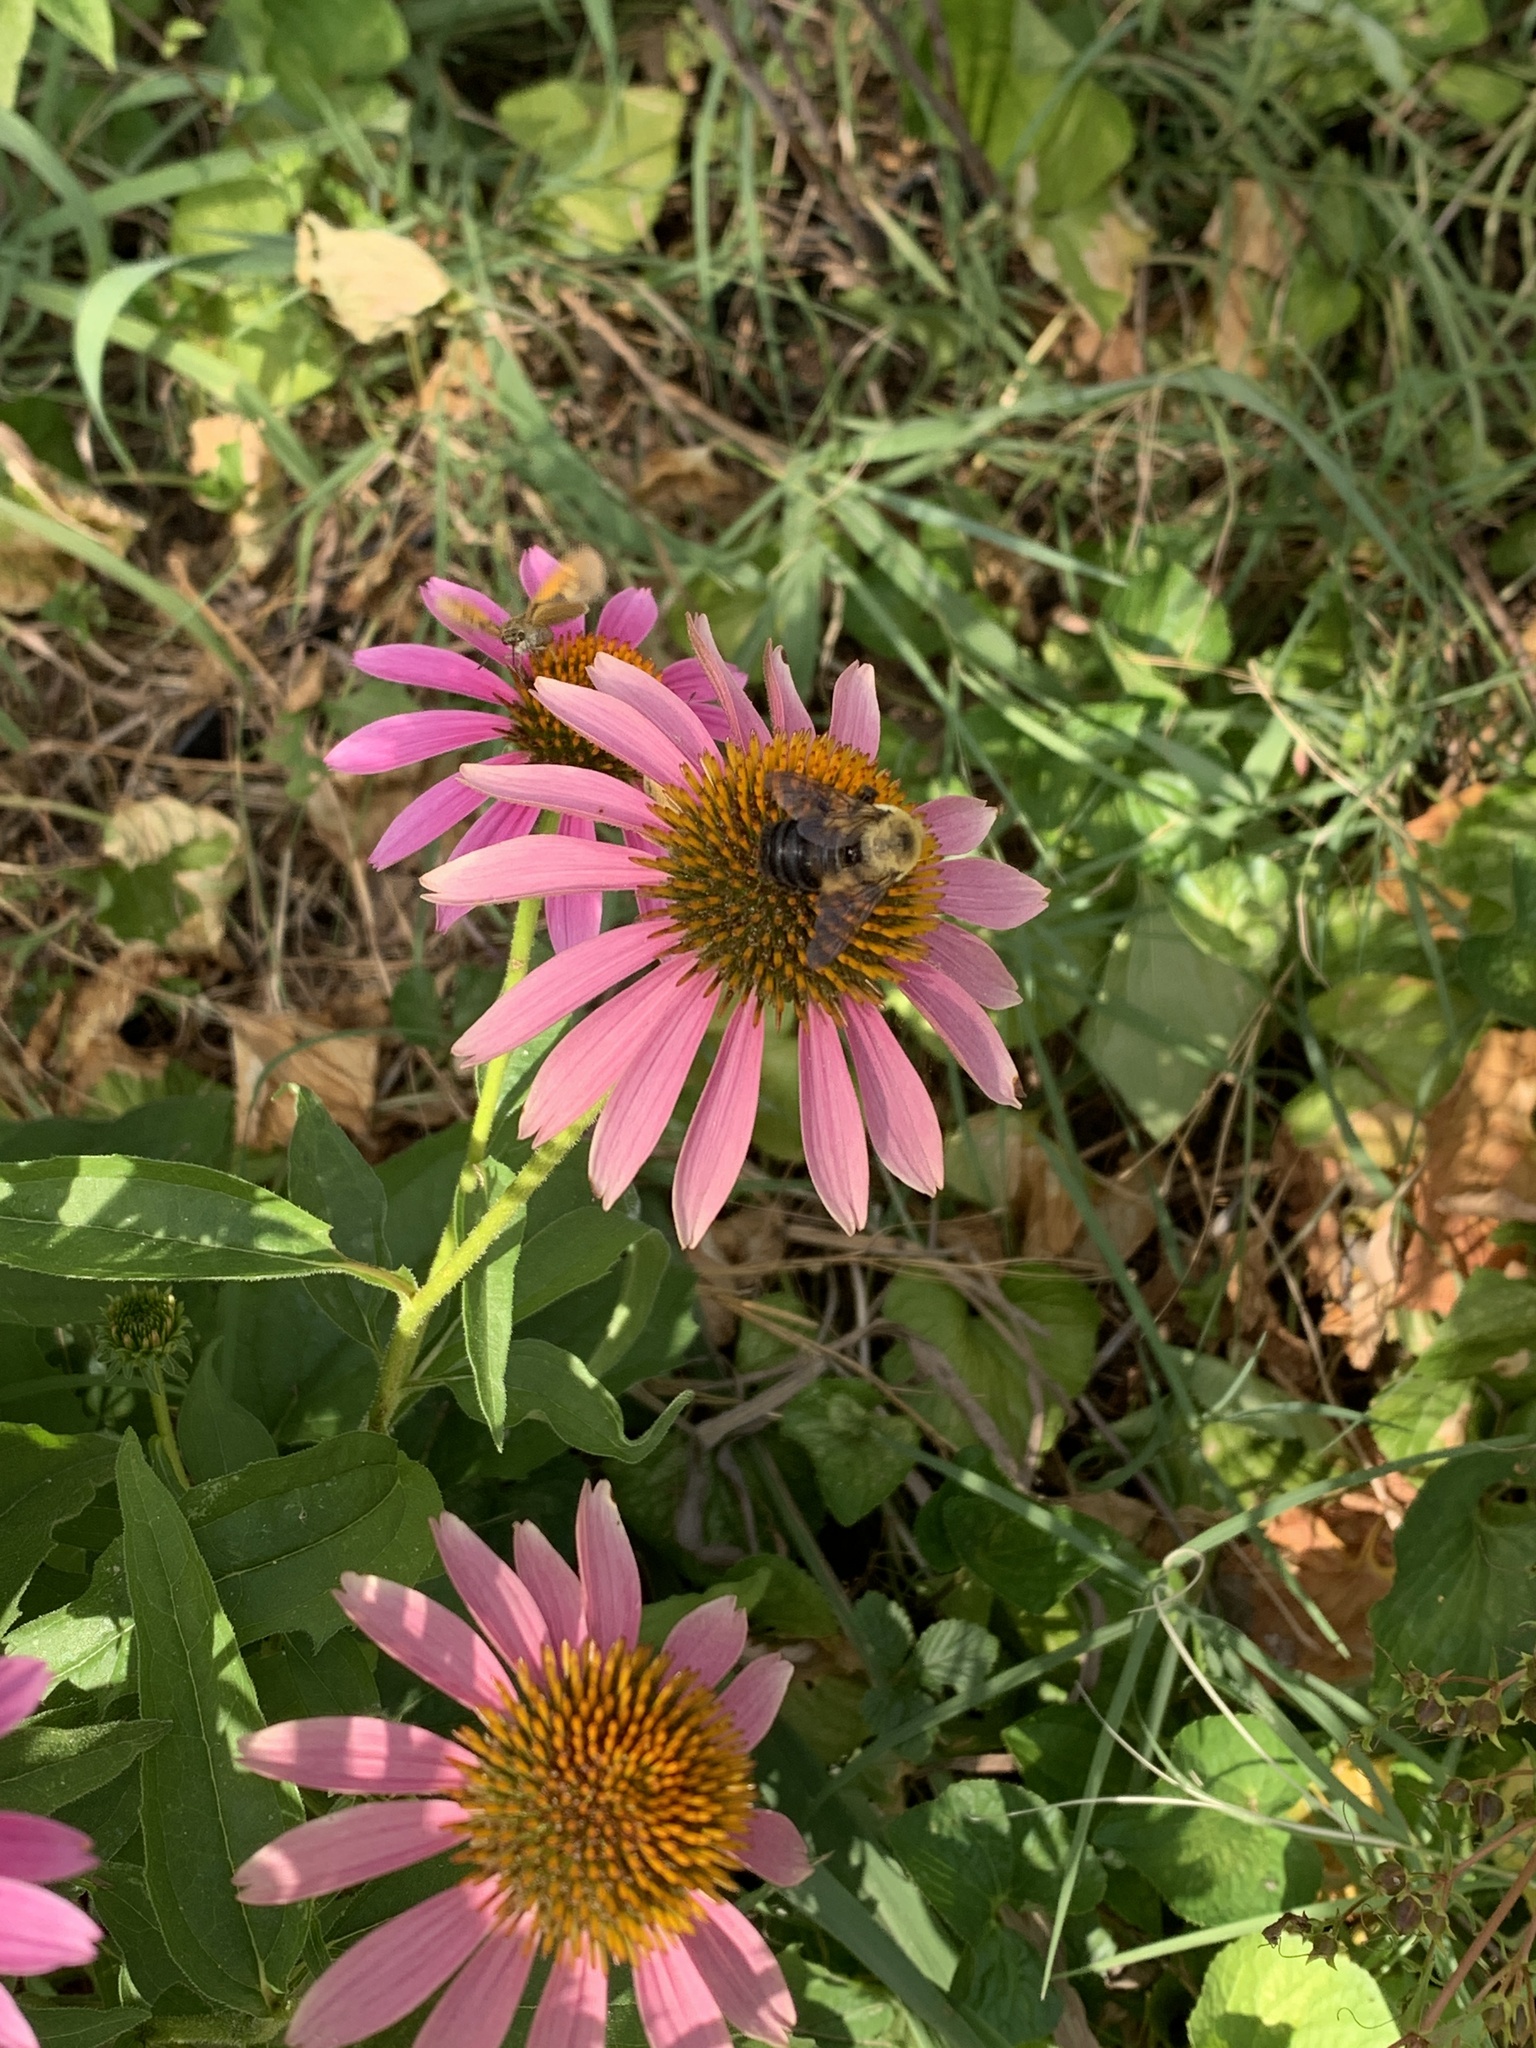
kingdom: Animalia
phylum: Arthropoda
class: Insecta
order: Hymenoptera
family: Apidae
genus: Bombus
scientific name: Bombus griseocollis
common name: Brown-belted bumble bee
